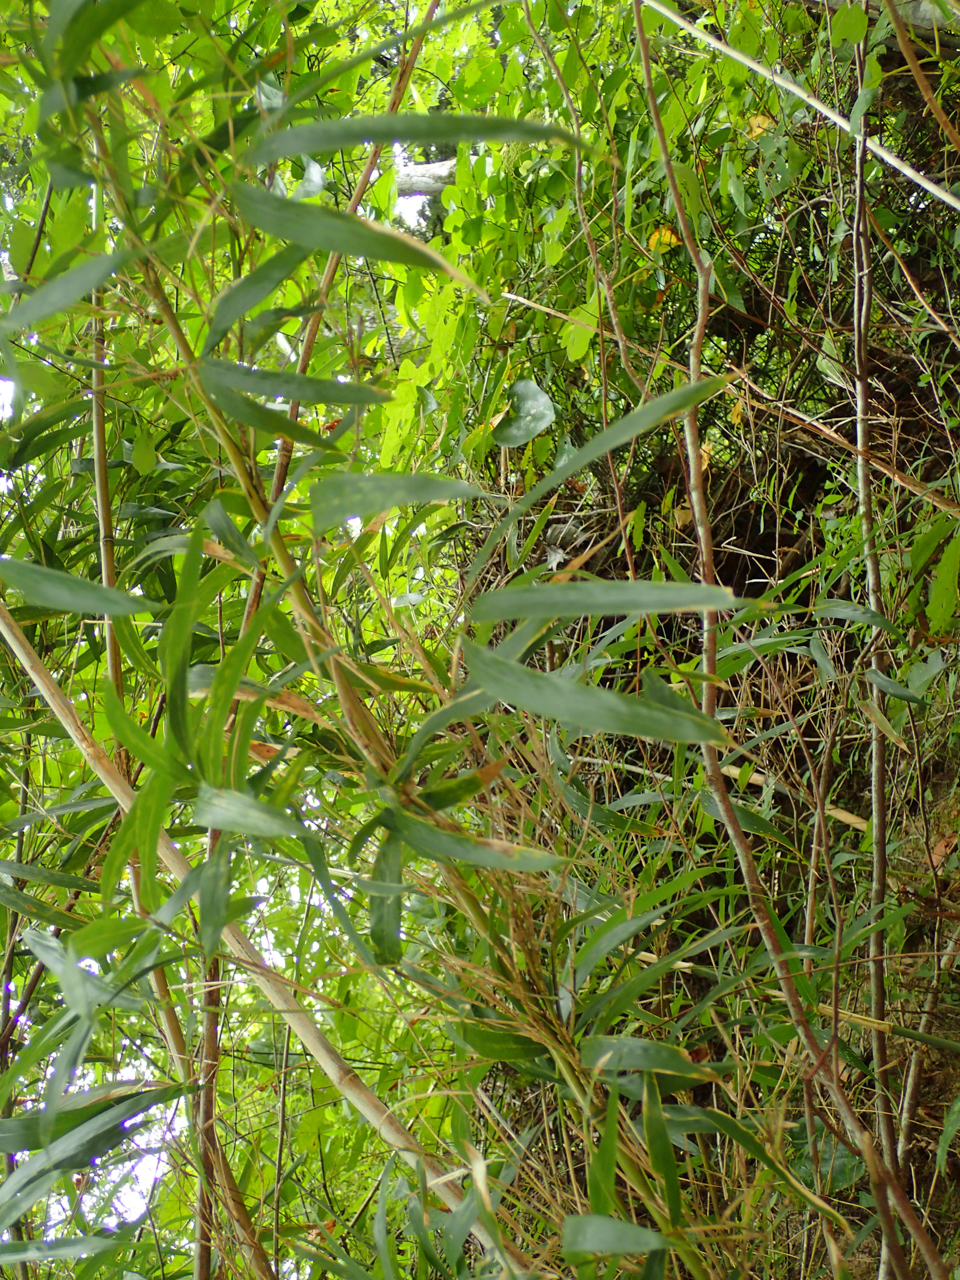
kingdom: Plantae
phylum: Tracheophyta
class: Liliopsida
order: Poales
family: Poaceae
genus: Arundinaria
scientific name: Arundinaria gigantea
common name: Giant cane
